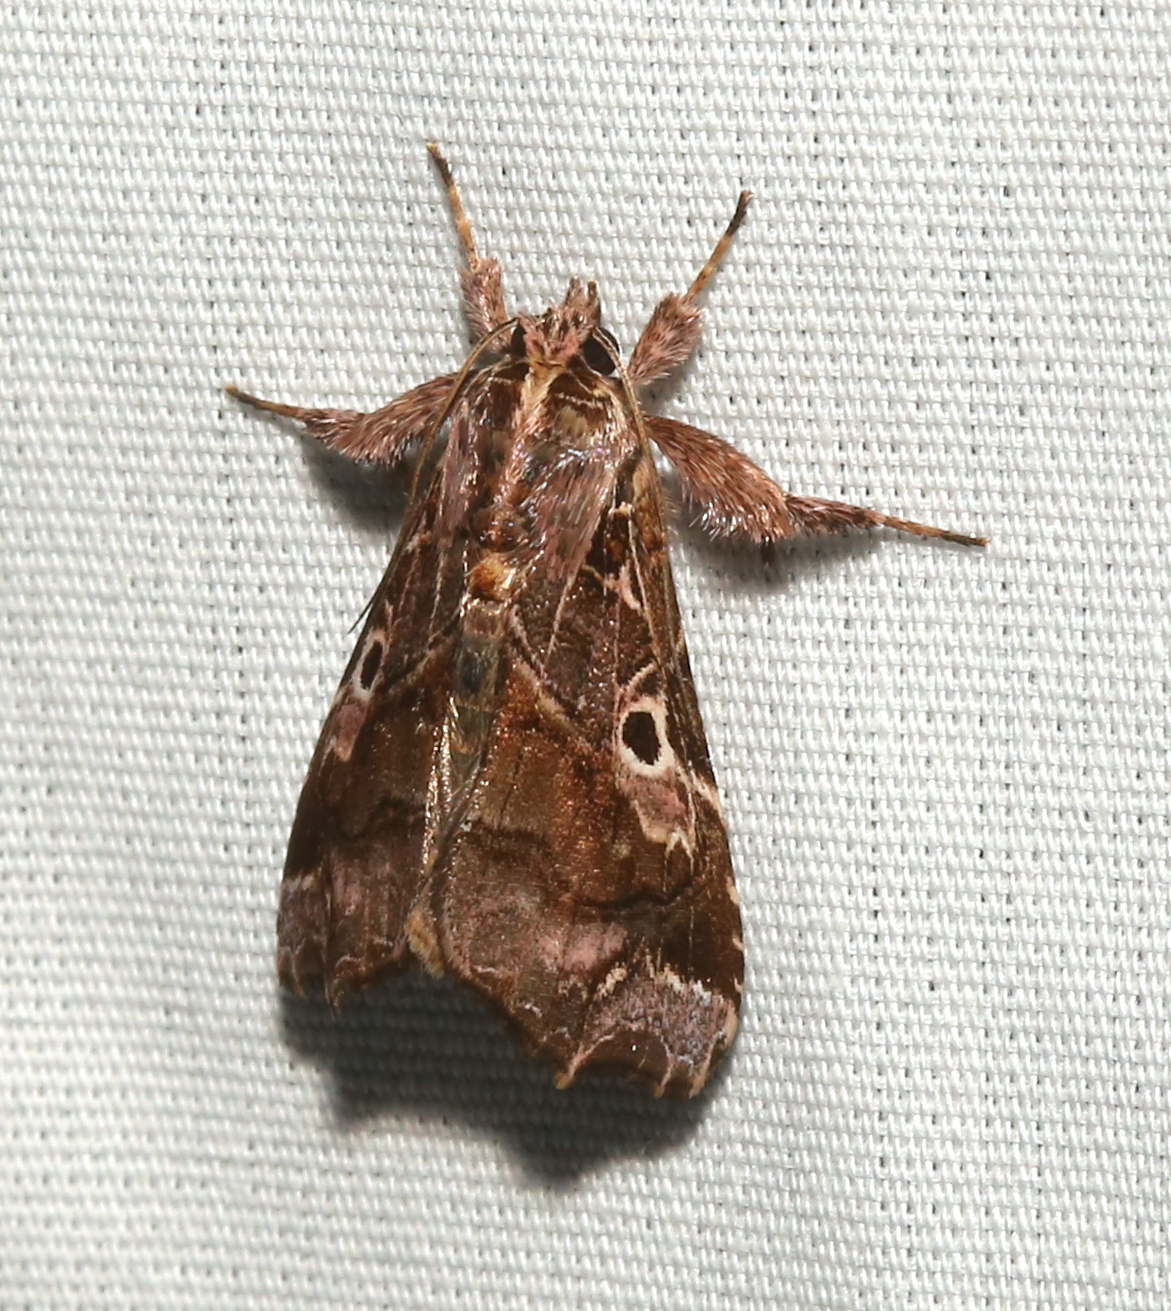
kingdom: Animalia
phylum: Arthropoda
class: Insecta
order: Lepidoptera
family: Noctuidae
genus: Callopistria
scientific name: Callopistria floridensis
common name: Florida fern moth
